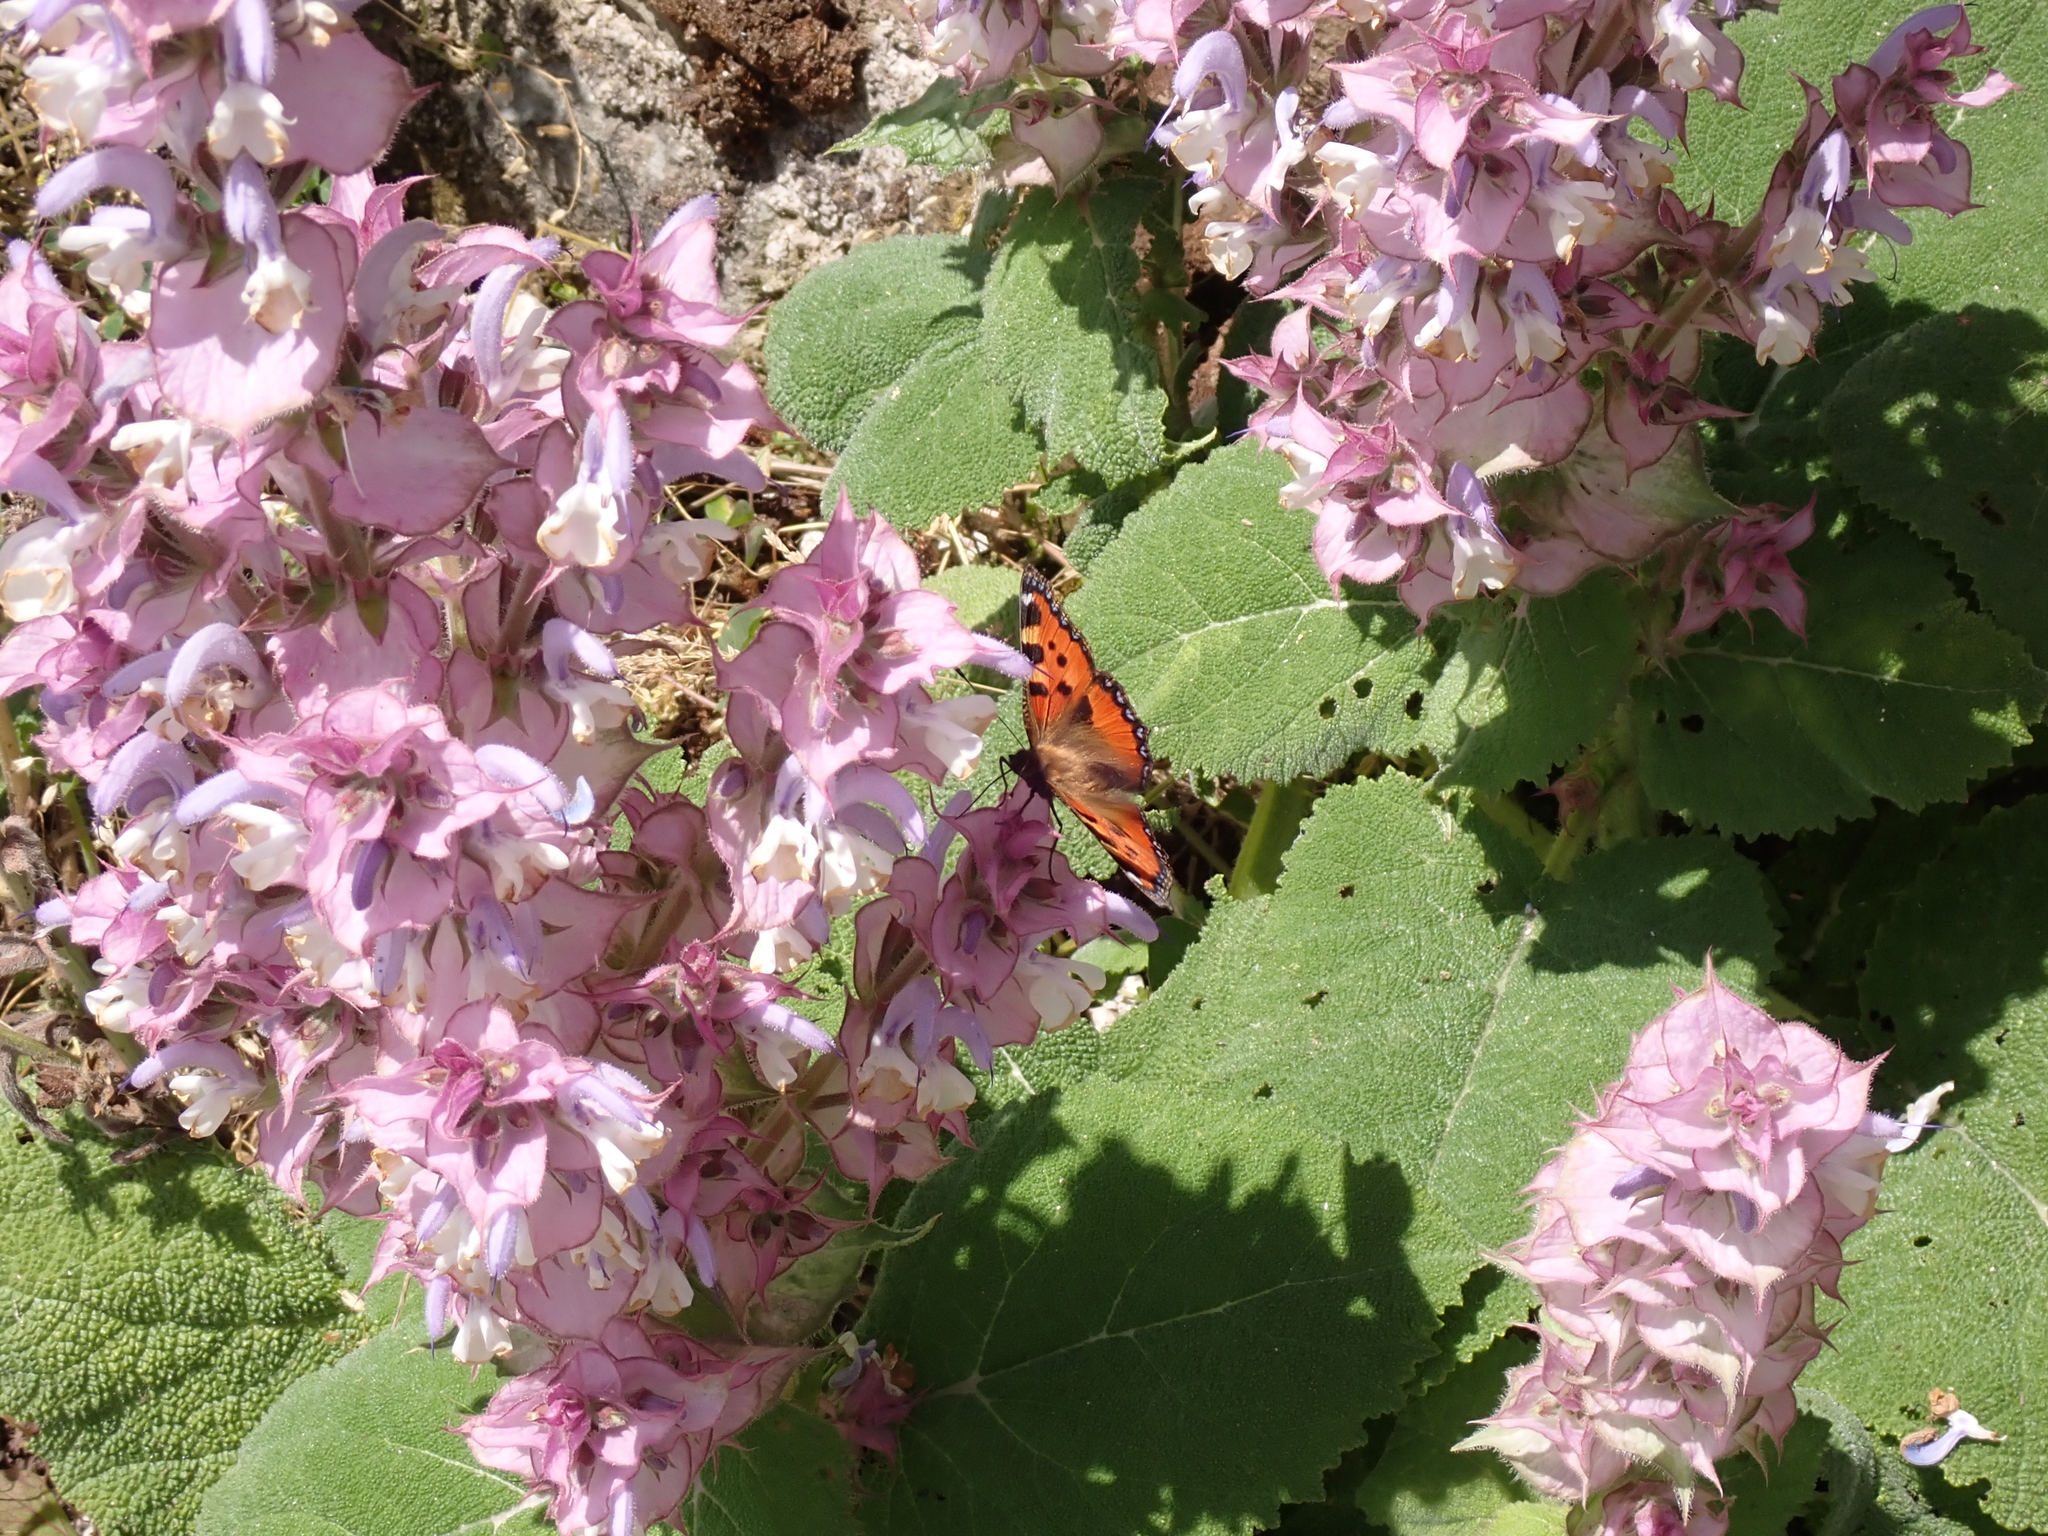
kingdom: Animalia
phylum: Arthropoda
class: Insecta
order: Lepidoptera
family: Nymphalidae
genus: Aglais
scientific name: Aglais urticae
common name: Small tortoiseshell
